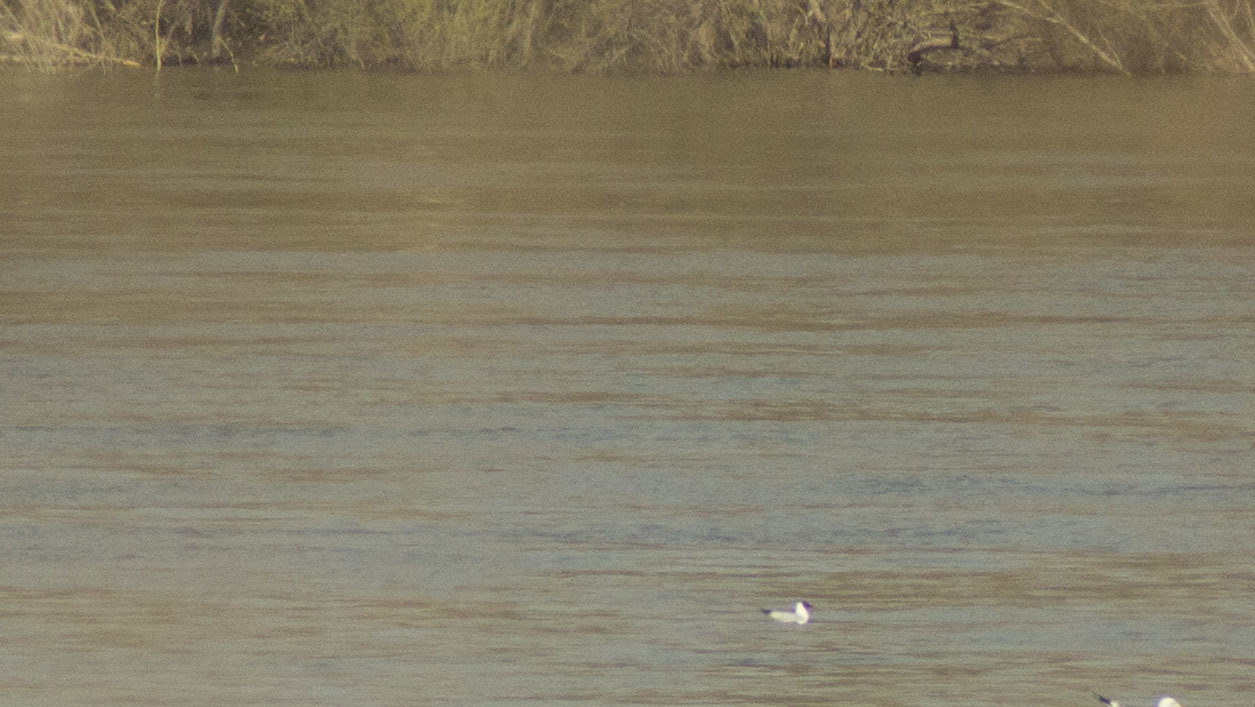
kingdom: Animalia
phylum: Chordata
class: Aves
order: Charadriiformes
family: Laridae
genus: Chroicocephalus
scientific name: Chroicocephalus ridibundus
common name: Black-headed gull
